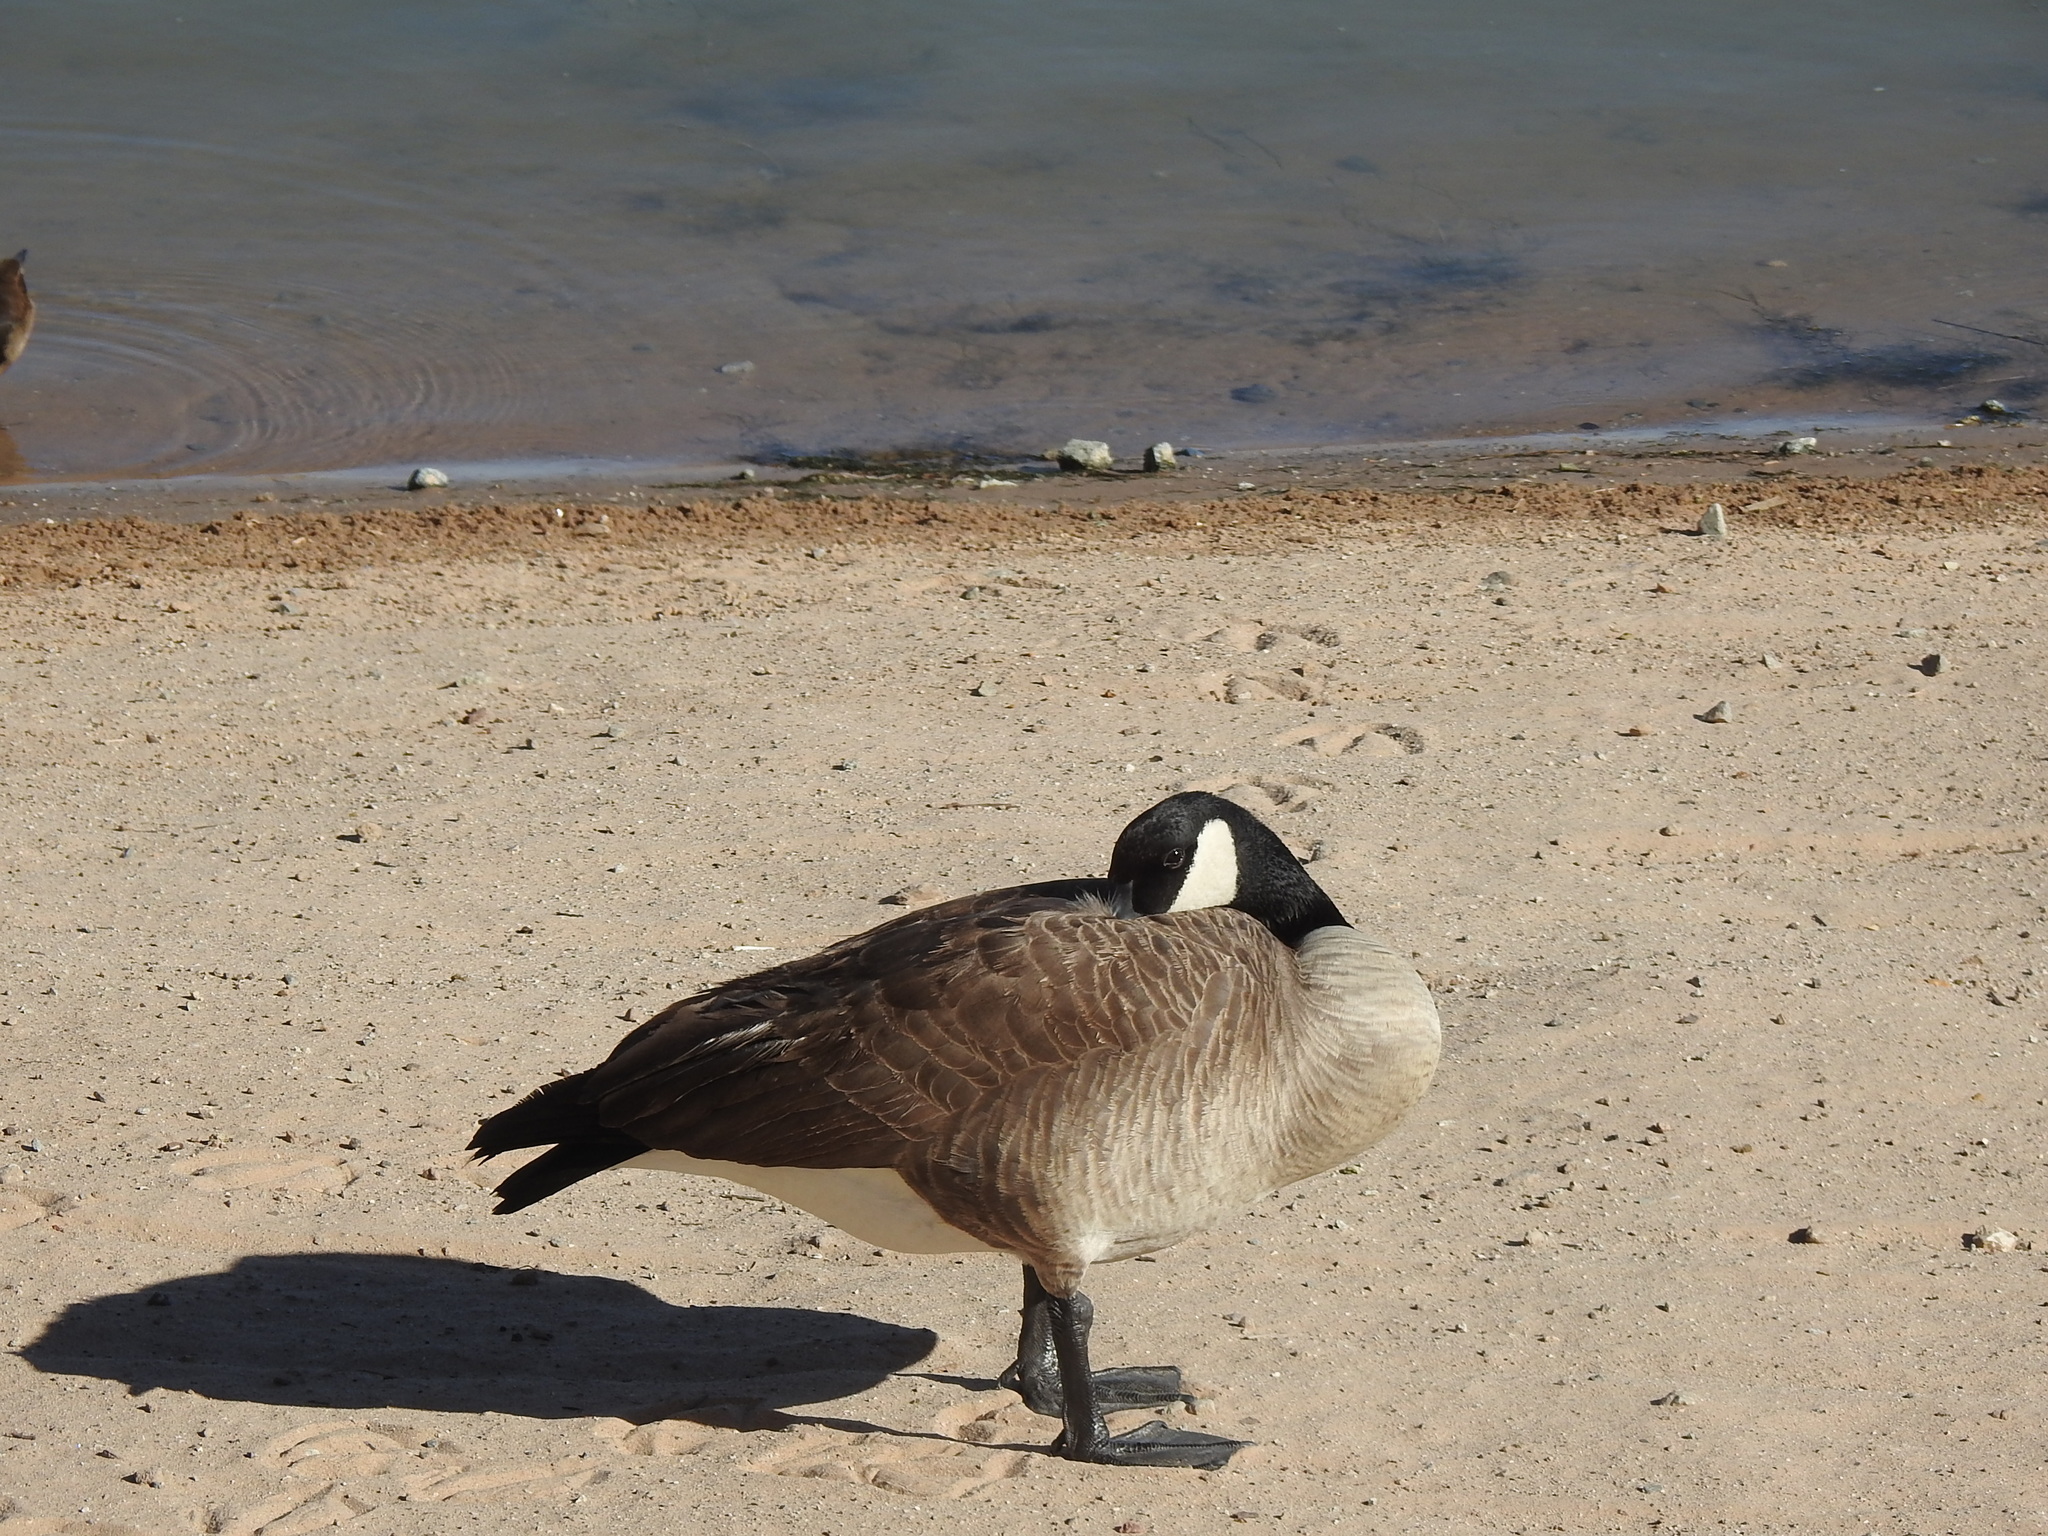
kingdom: Animalia
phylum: Chordata
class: Aves
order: Anseriformes
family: Anatidae
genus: Branta
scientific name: Branta canadensis
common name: Canada goose
